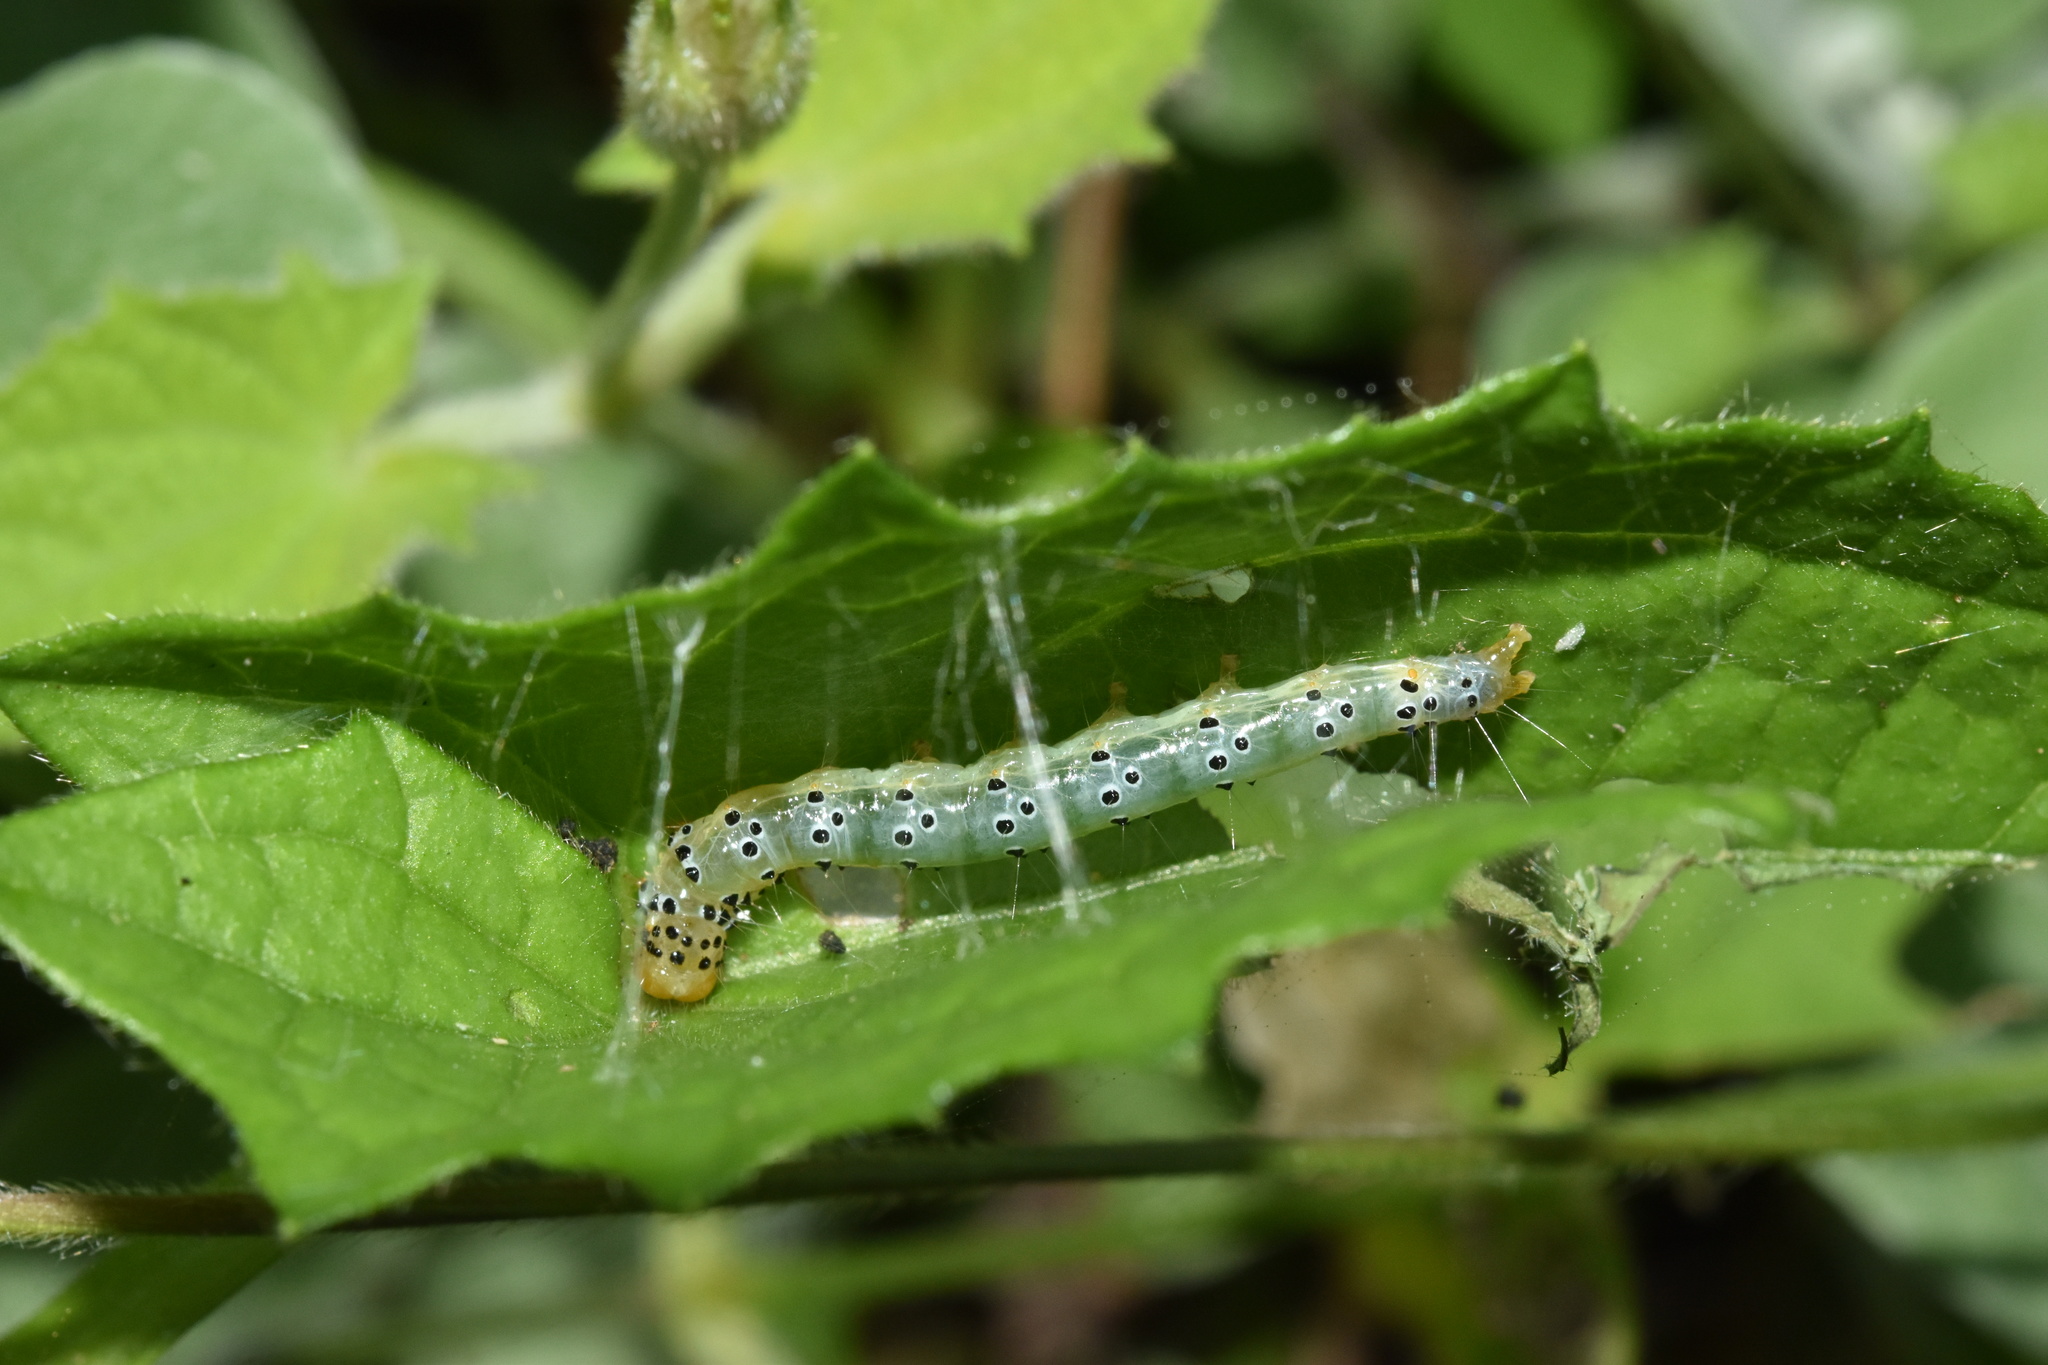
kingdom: Plantae
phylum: Tracheophyta
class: Magnoliopsida
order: Lamiales
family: Acanthaceae
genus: Thunbergia
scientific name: Thunbergia alata
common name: Blackeyed susan vine
